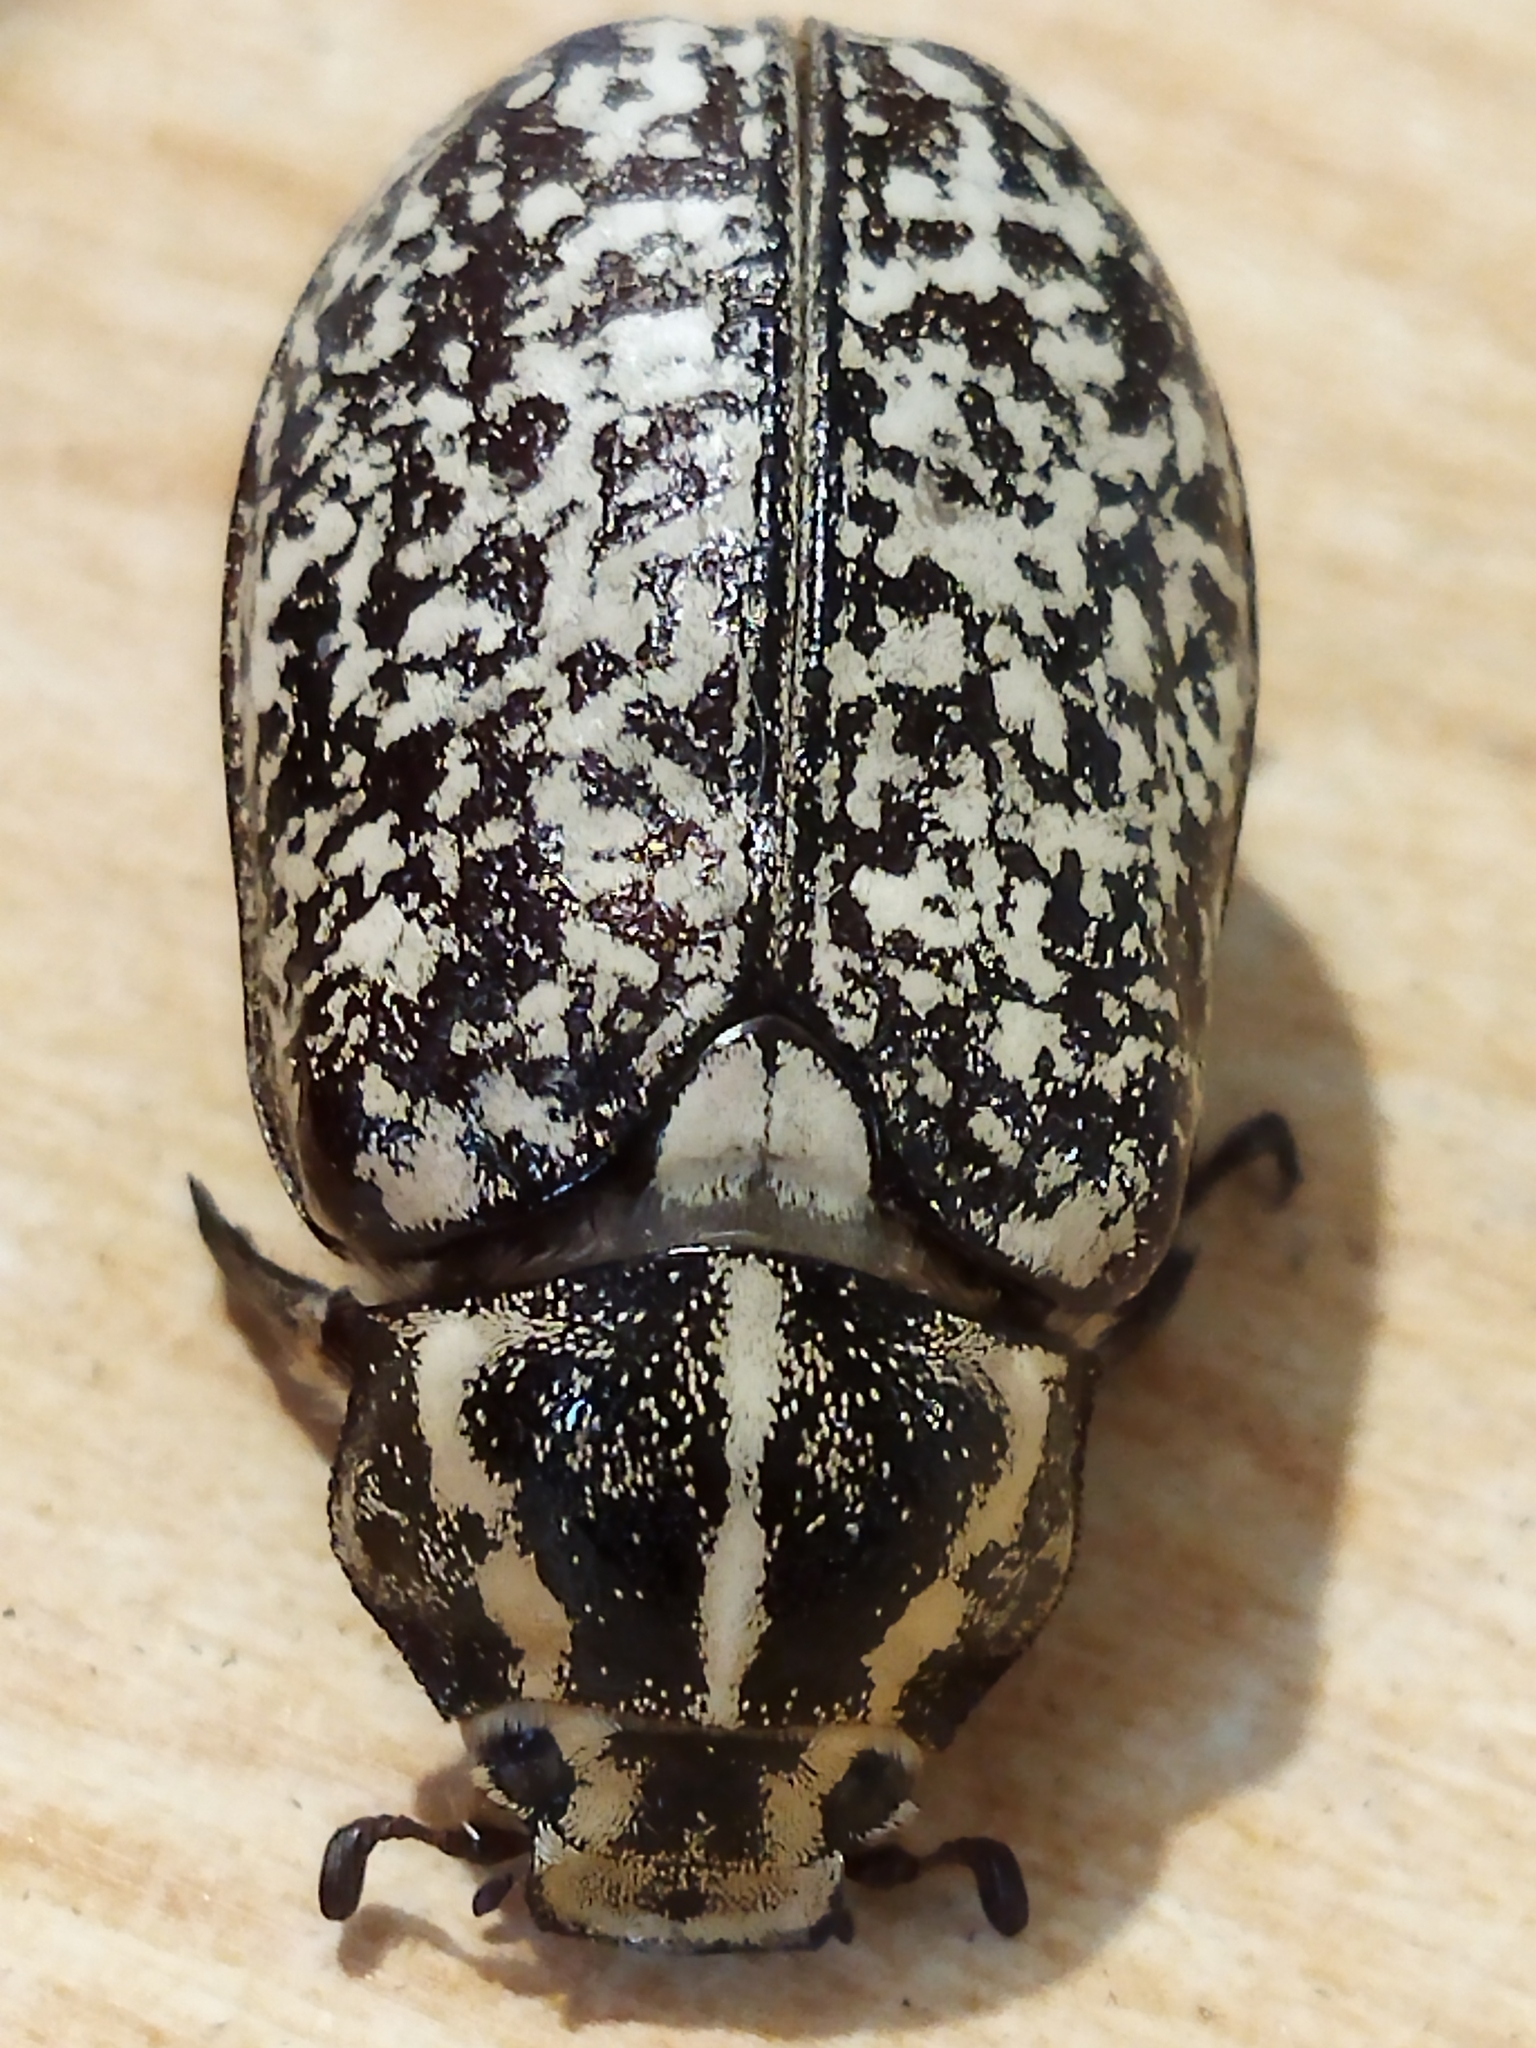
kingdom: Animalia
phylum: Arthropoda
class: Insecta
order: Coleoptera
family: Scarabaeidae
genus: Polyphylla
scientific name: Polyphylla fullo
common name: Pine chafer
